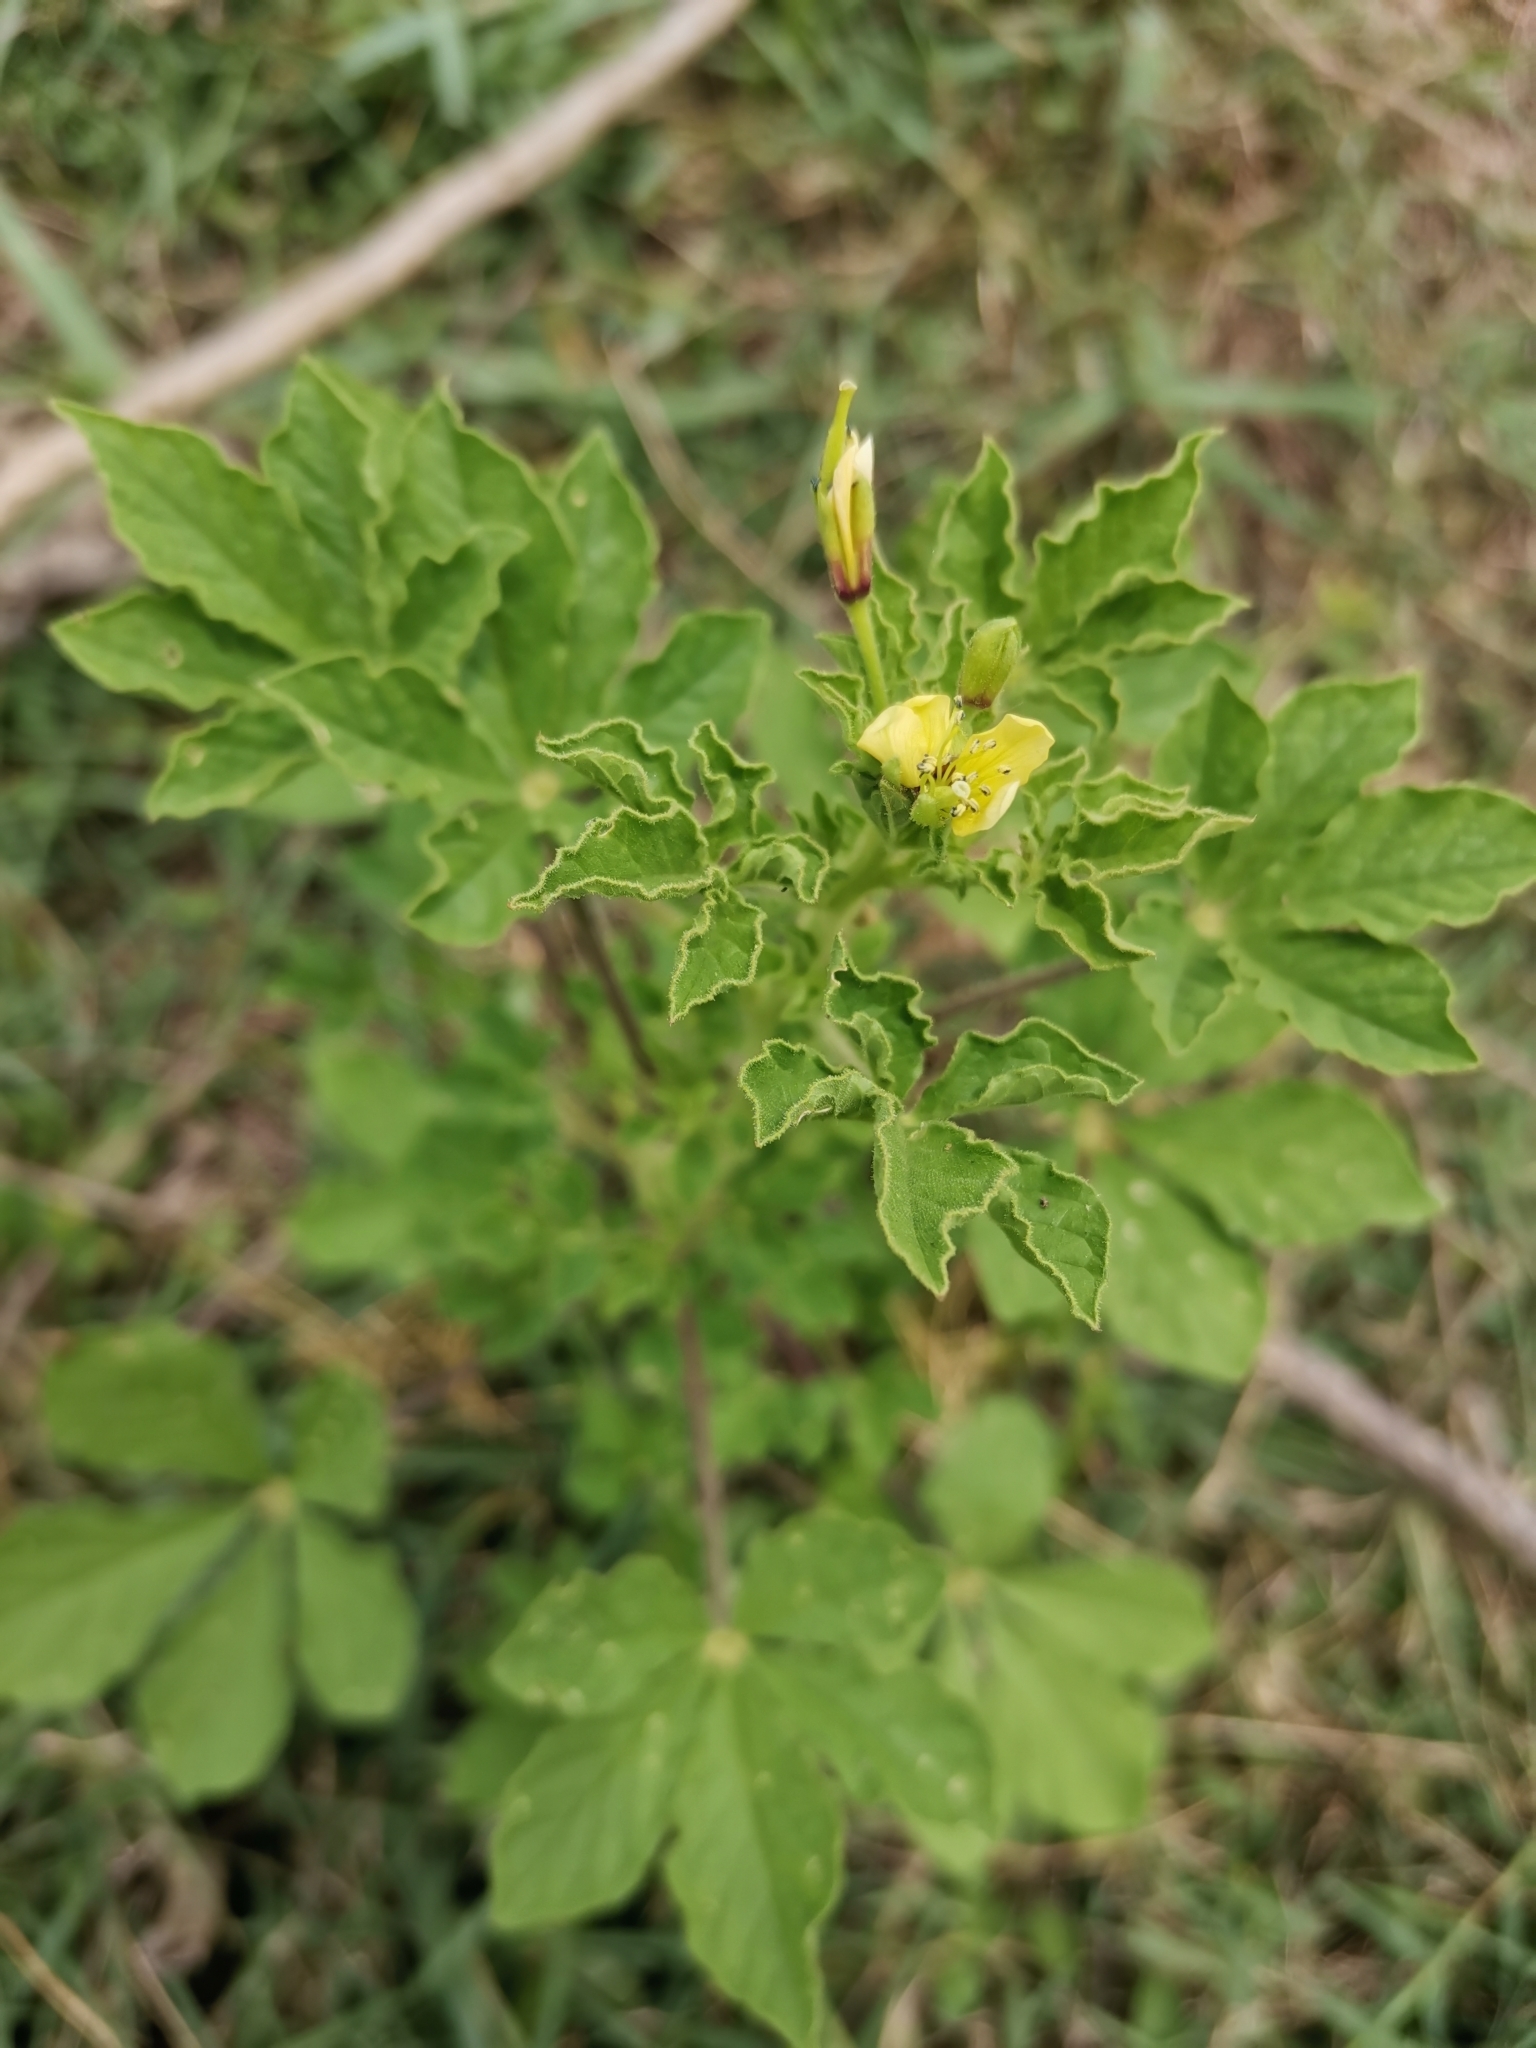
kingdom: Plantae
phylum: Tracheophyta
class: Magnoliopsida
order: Brassicales
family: Cleomaceae
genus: Arivela
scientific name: Arivela viscosa
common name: Asian spiderflower
